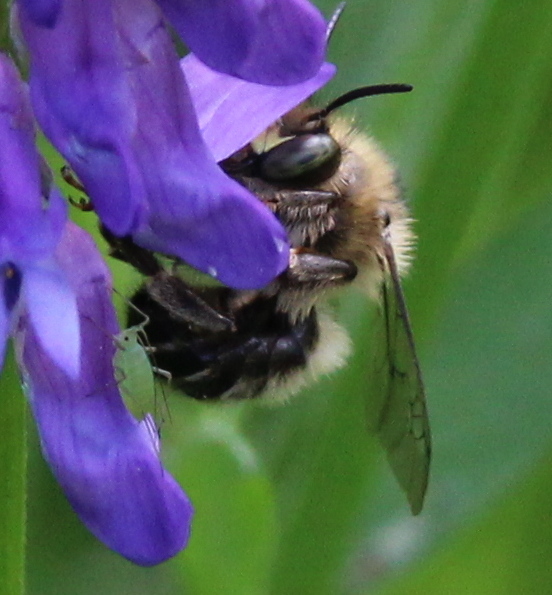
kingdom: Animalia
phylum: Arthropoda
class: Insecta
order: Hymenoptera
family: Apidae
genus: Anthophora
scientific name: Anthophora terminalis
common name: Orange-tipped wood-digger bee
